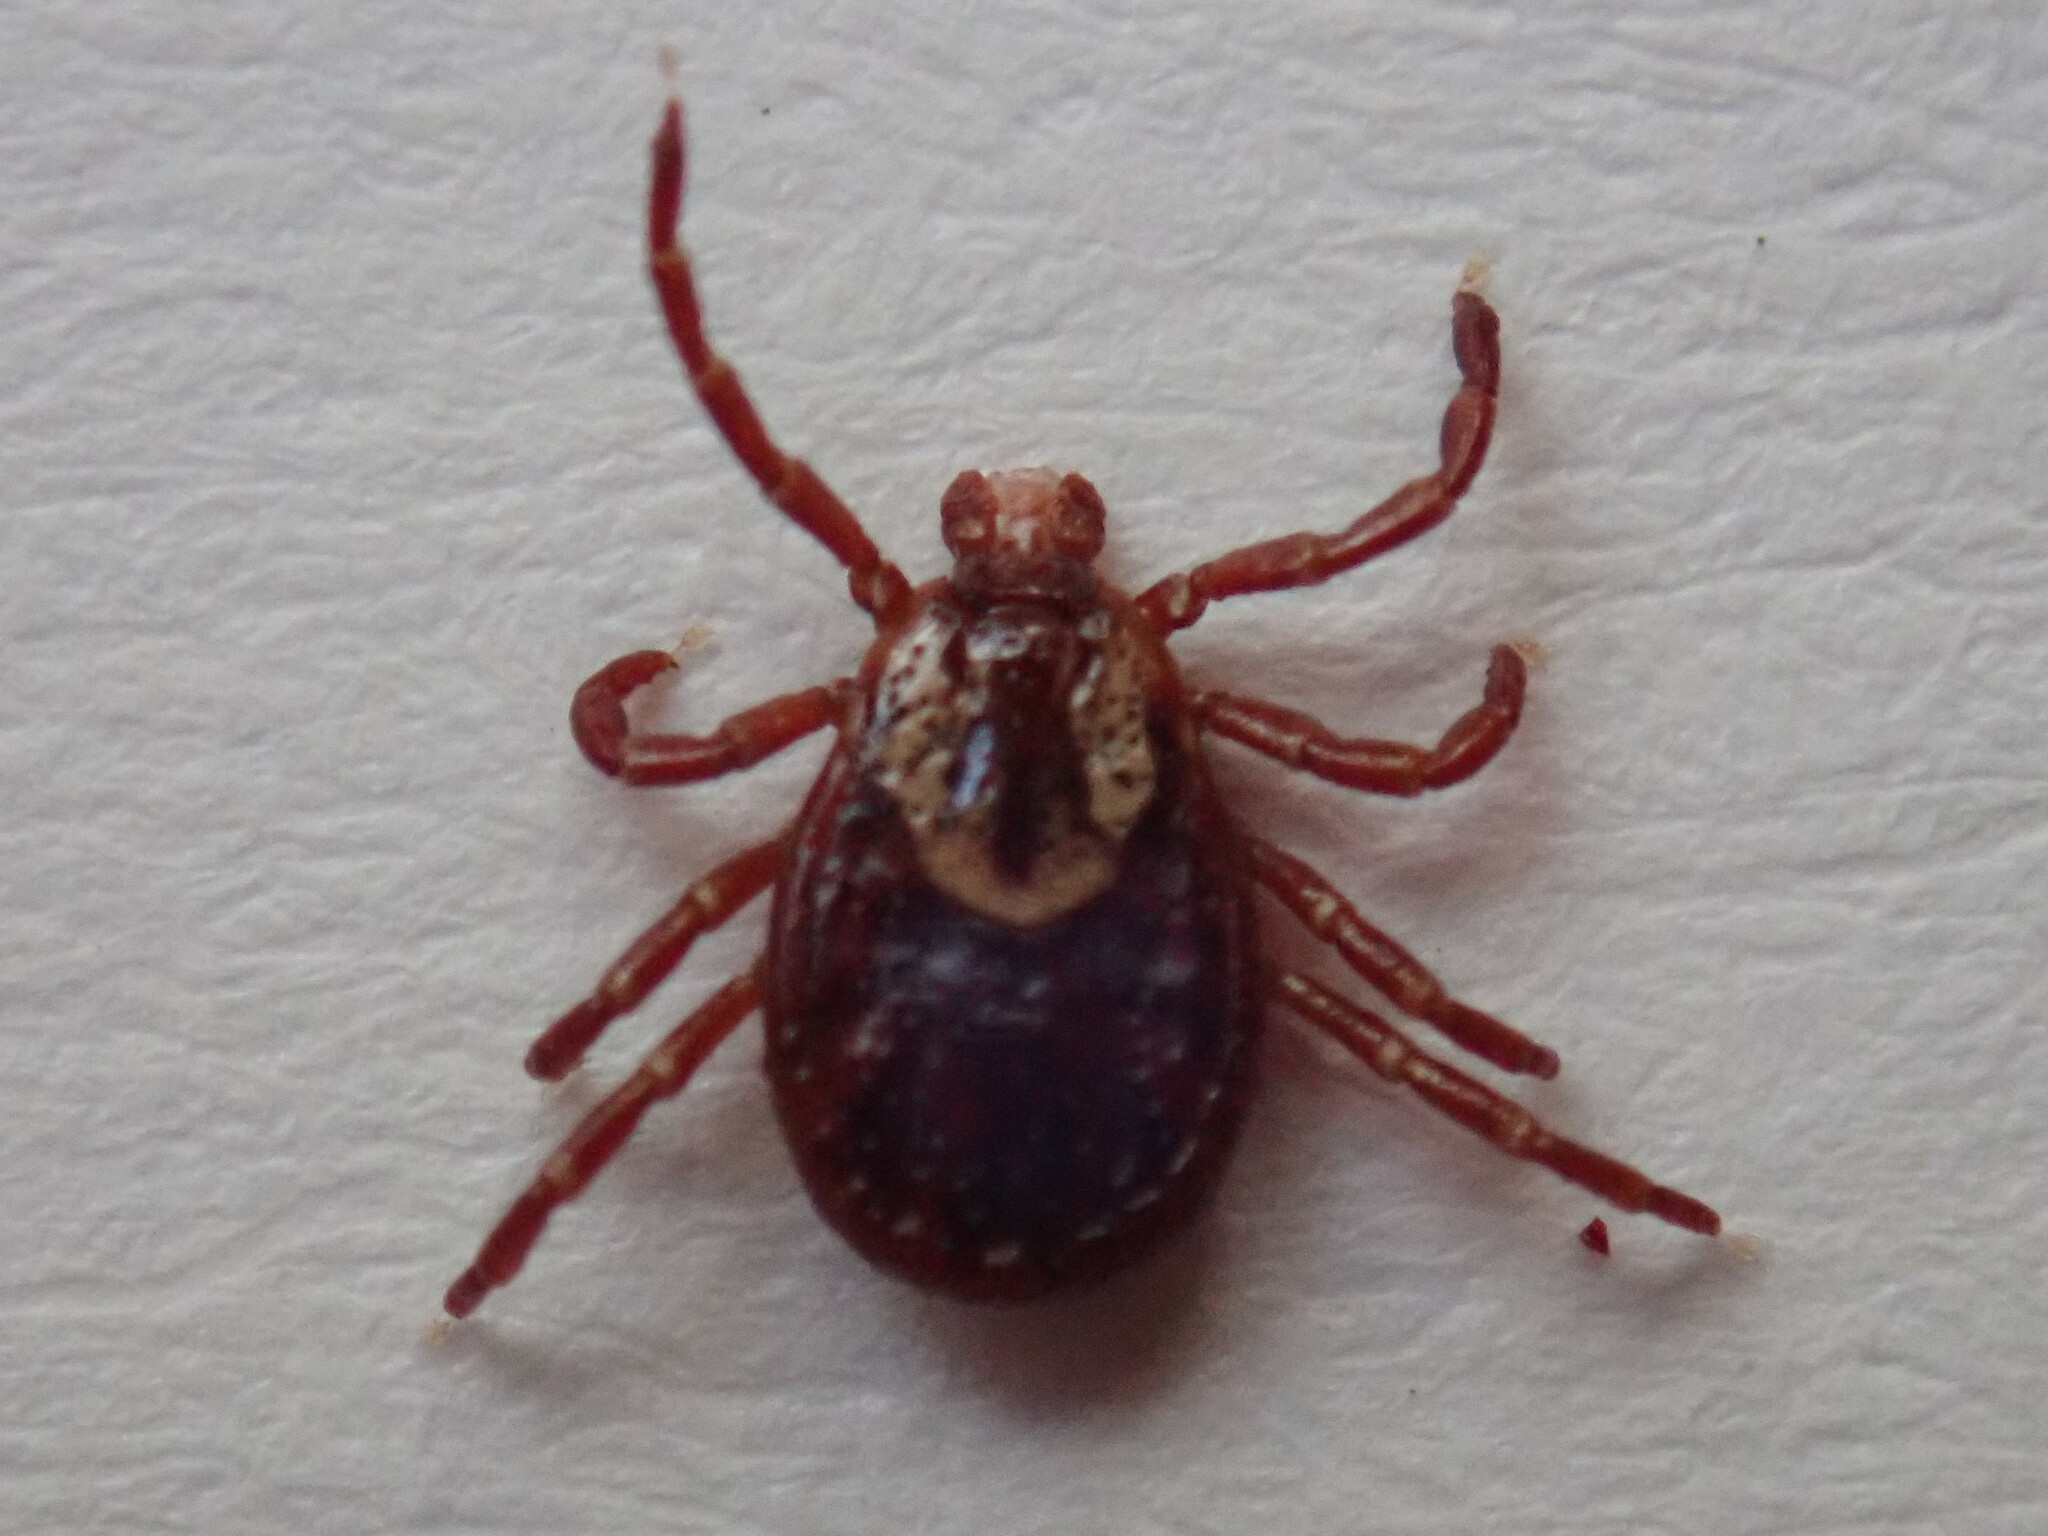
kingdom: Animalia
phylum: Arthropoda
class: Arachnida
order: Ixodida
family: Ixodidae
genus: Dermacentor
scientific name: Dermacentor variabilis
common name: American dog tick
